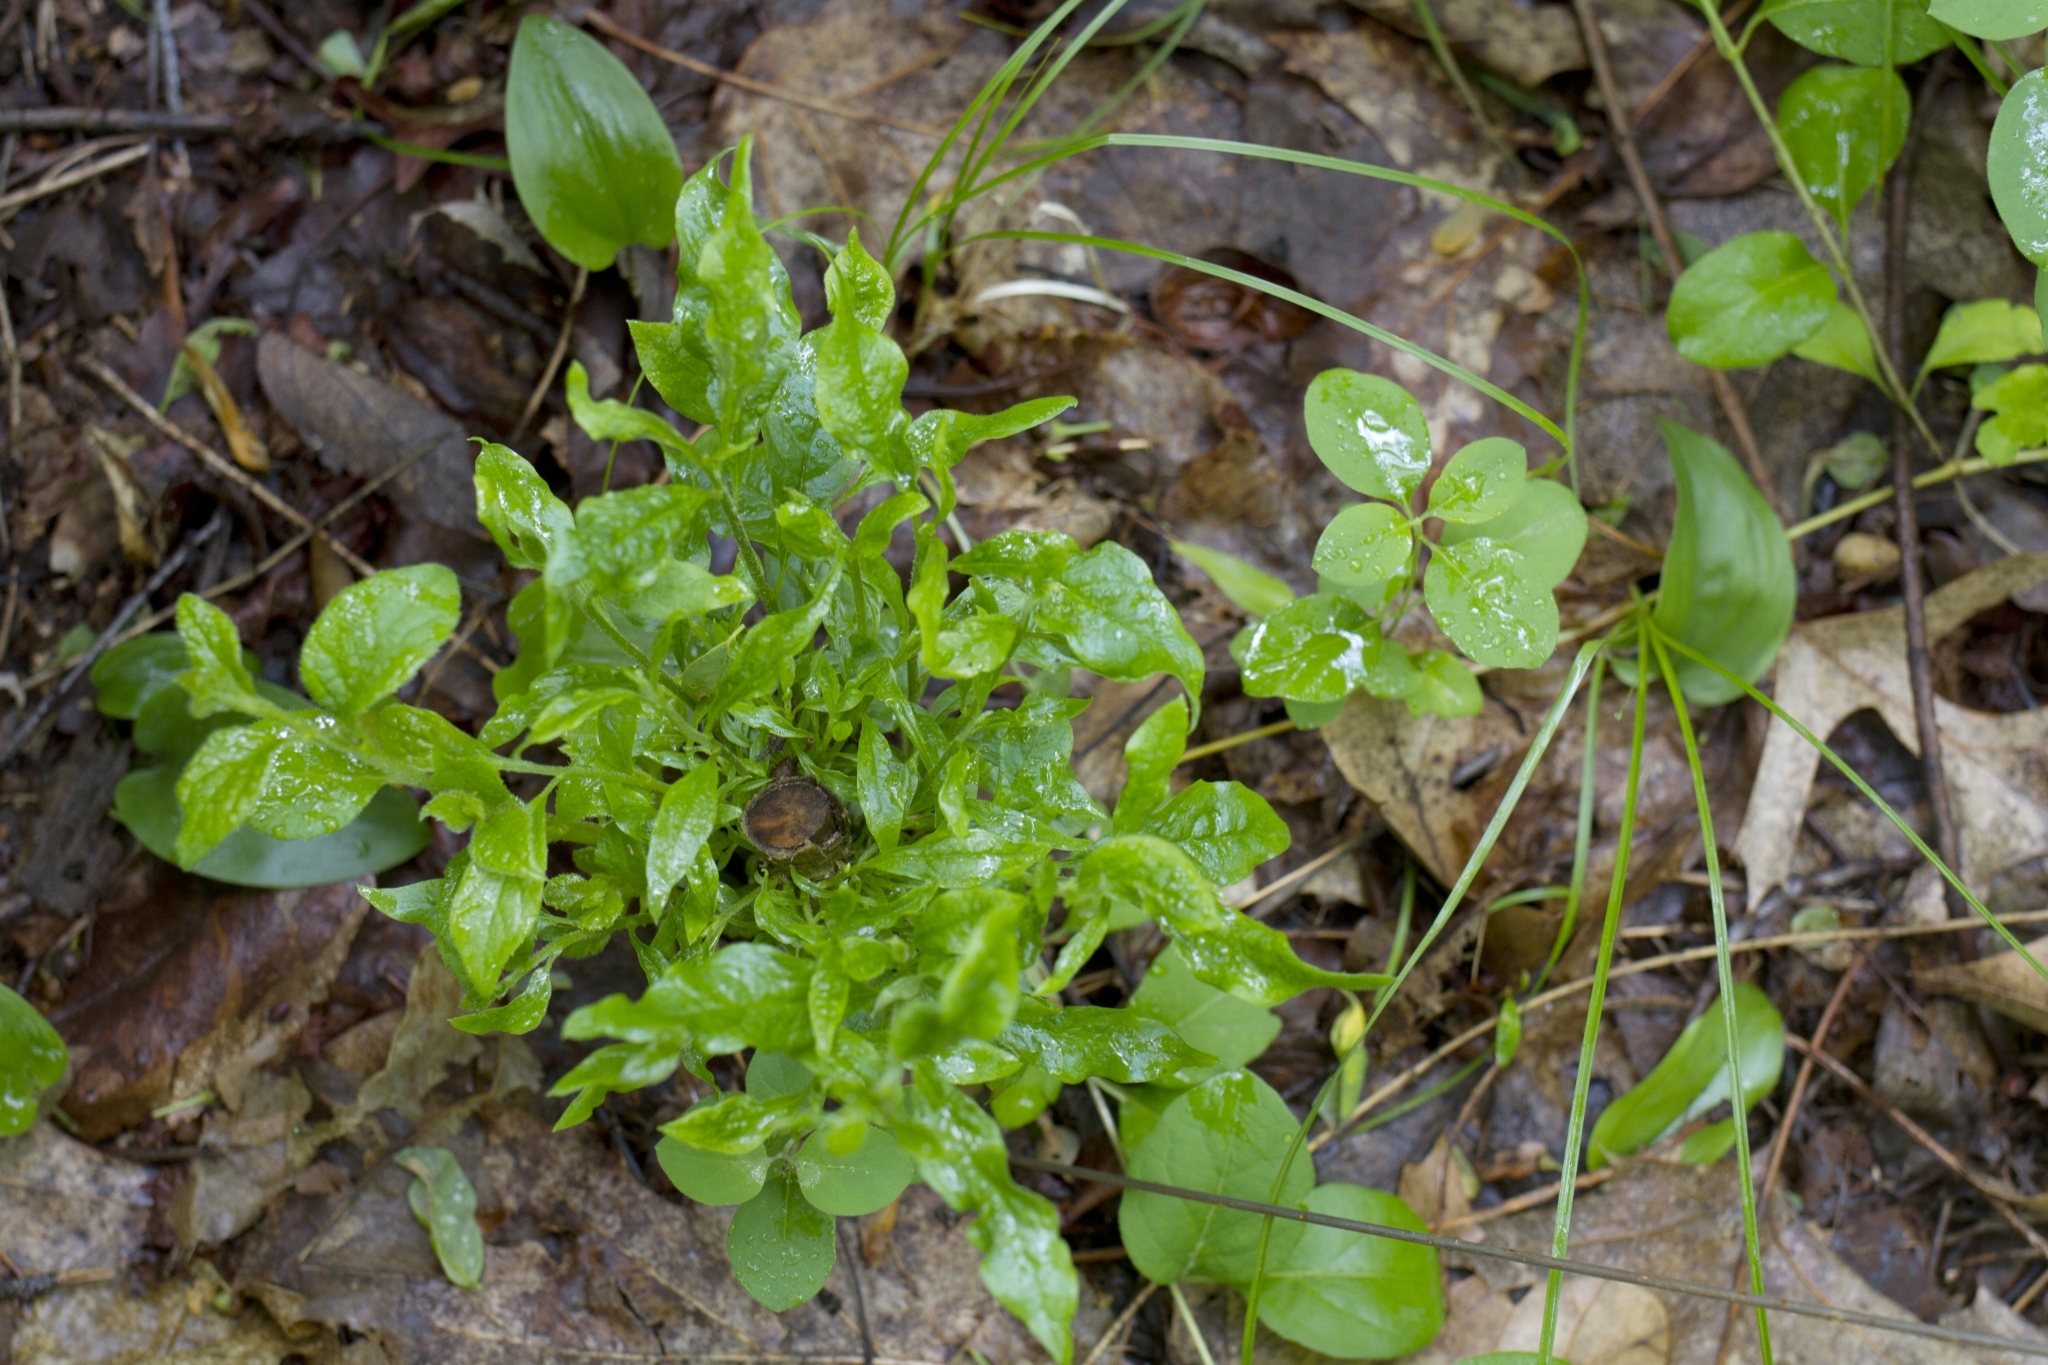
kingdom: Plantae
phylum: Tracheophyta
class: Magnoliopsida
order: Ericales
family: Symplocaceae
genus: Symplocos
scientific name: Symplocos paniculata
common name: Sapphire-berry
